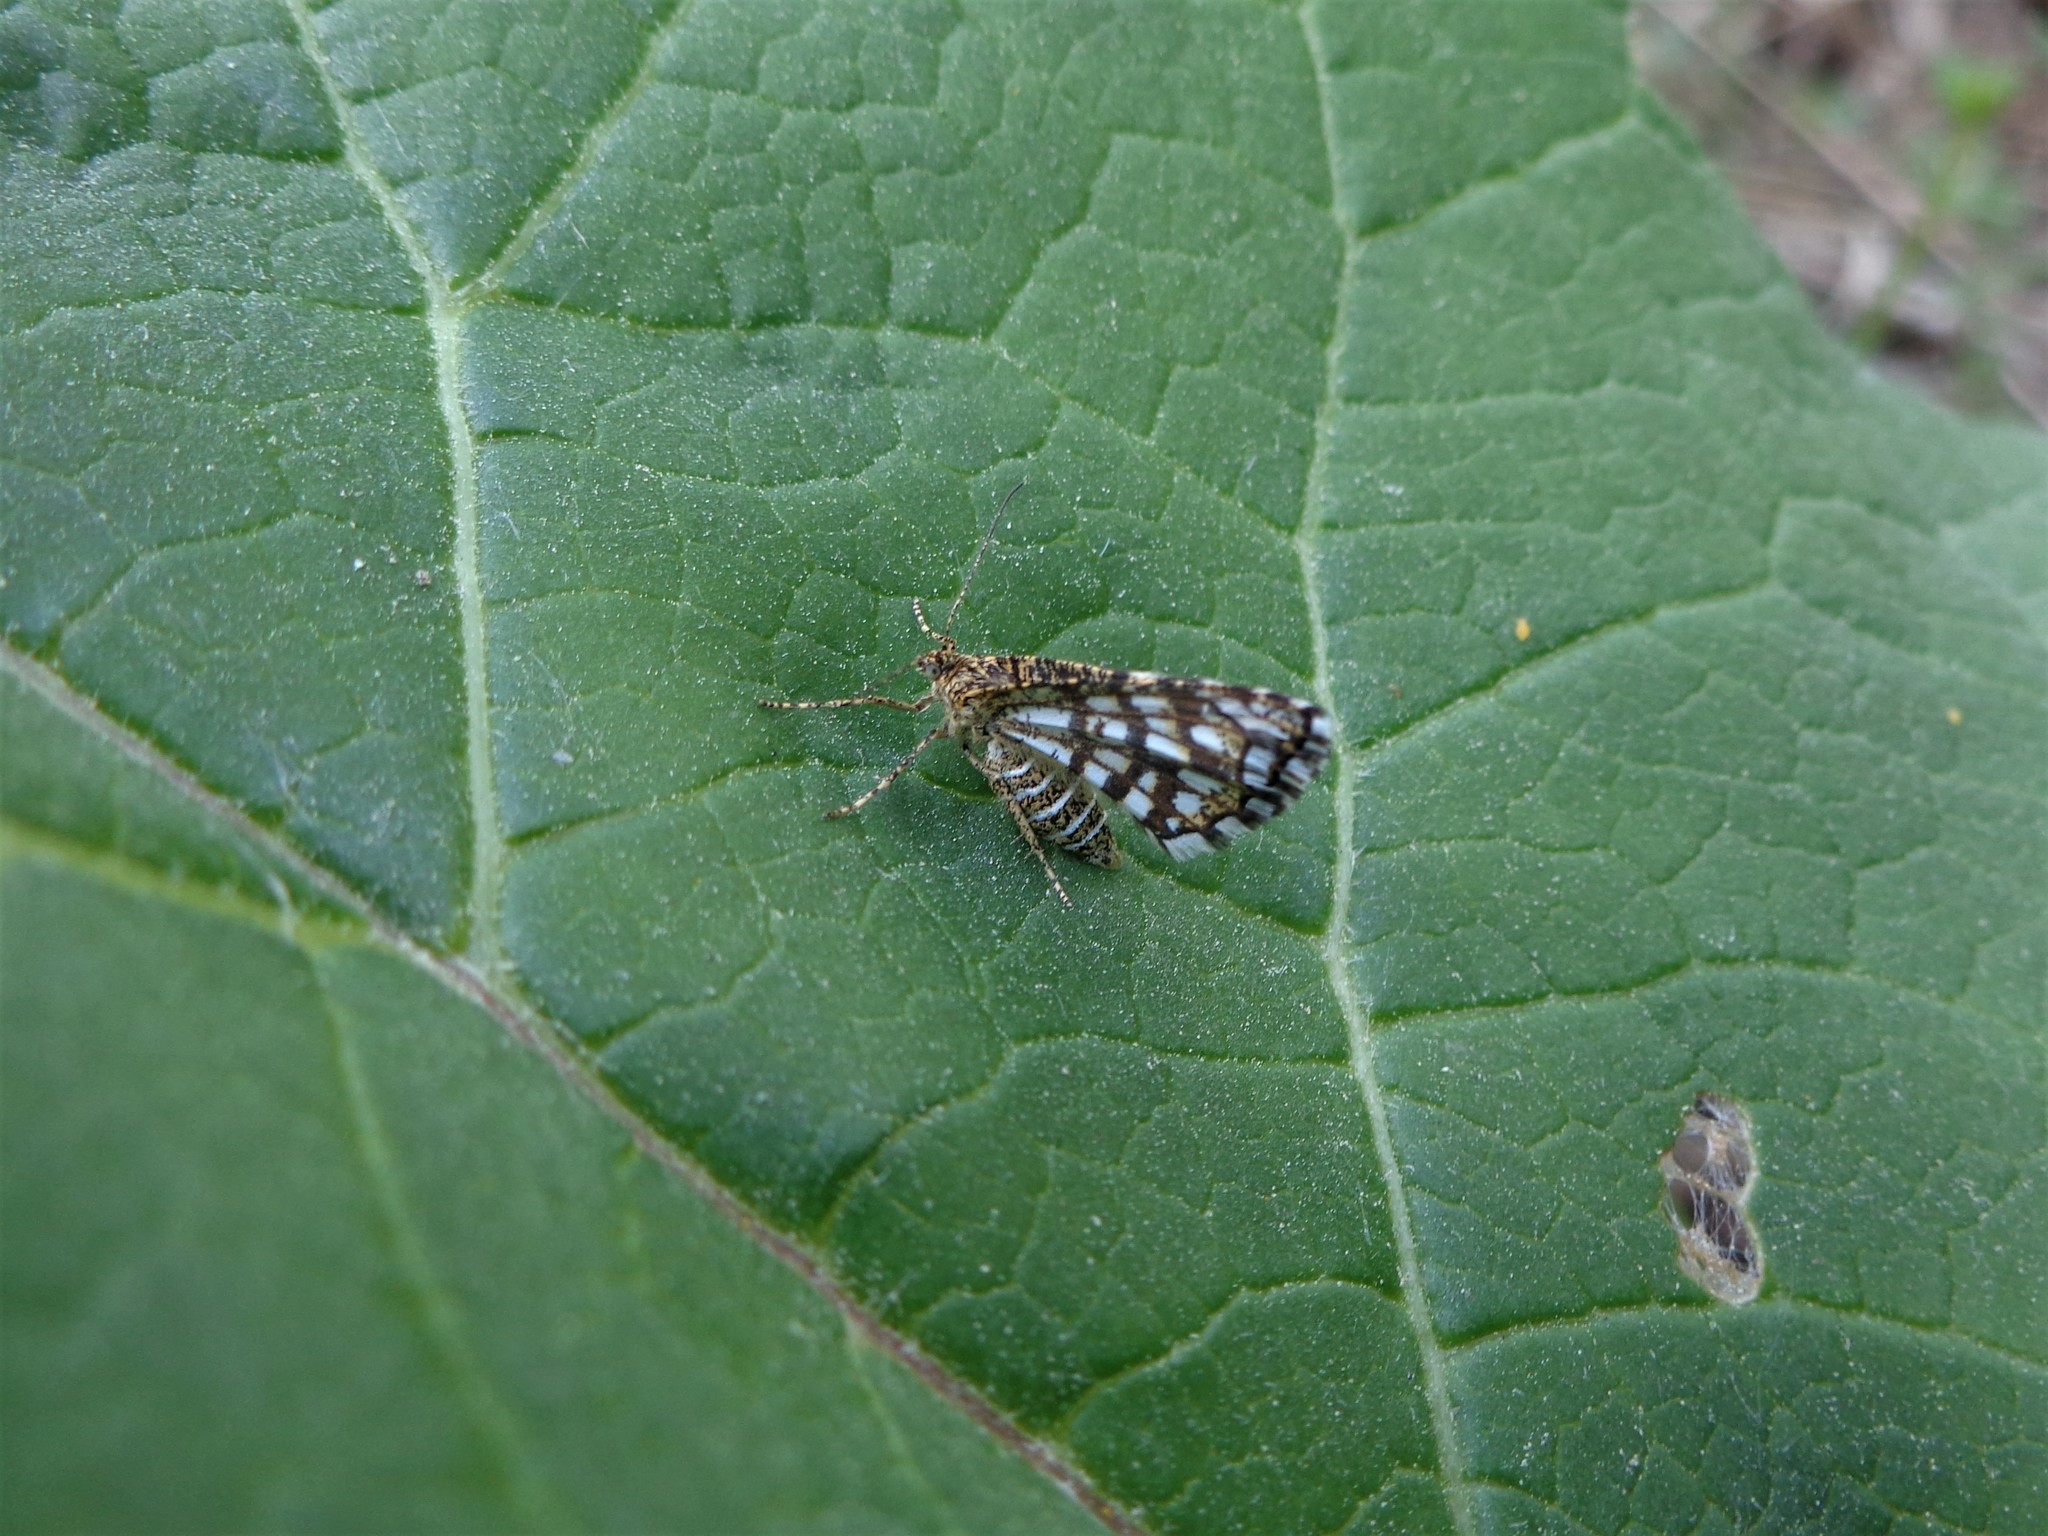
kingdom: Animalia
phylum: Arthropoda
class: Insecta
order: Lepidoptera
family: Geometridae
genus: Chiasmia
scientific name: Chiasmia clathrata
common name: Latticed heath
